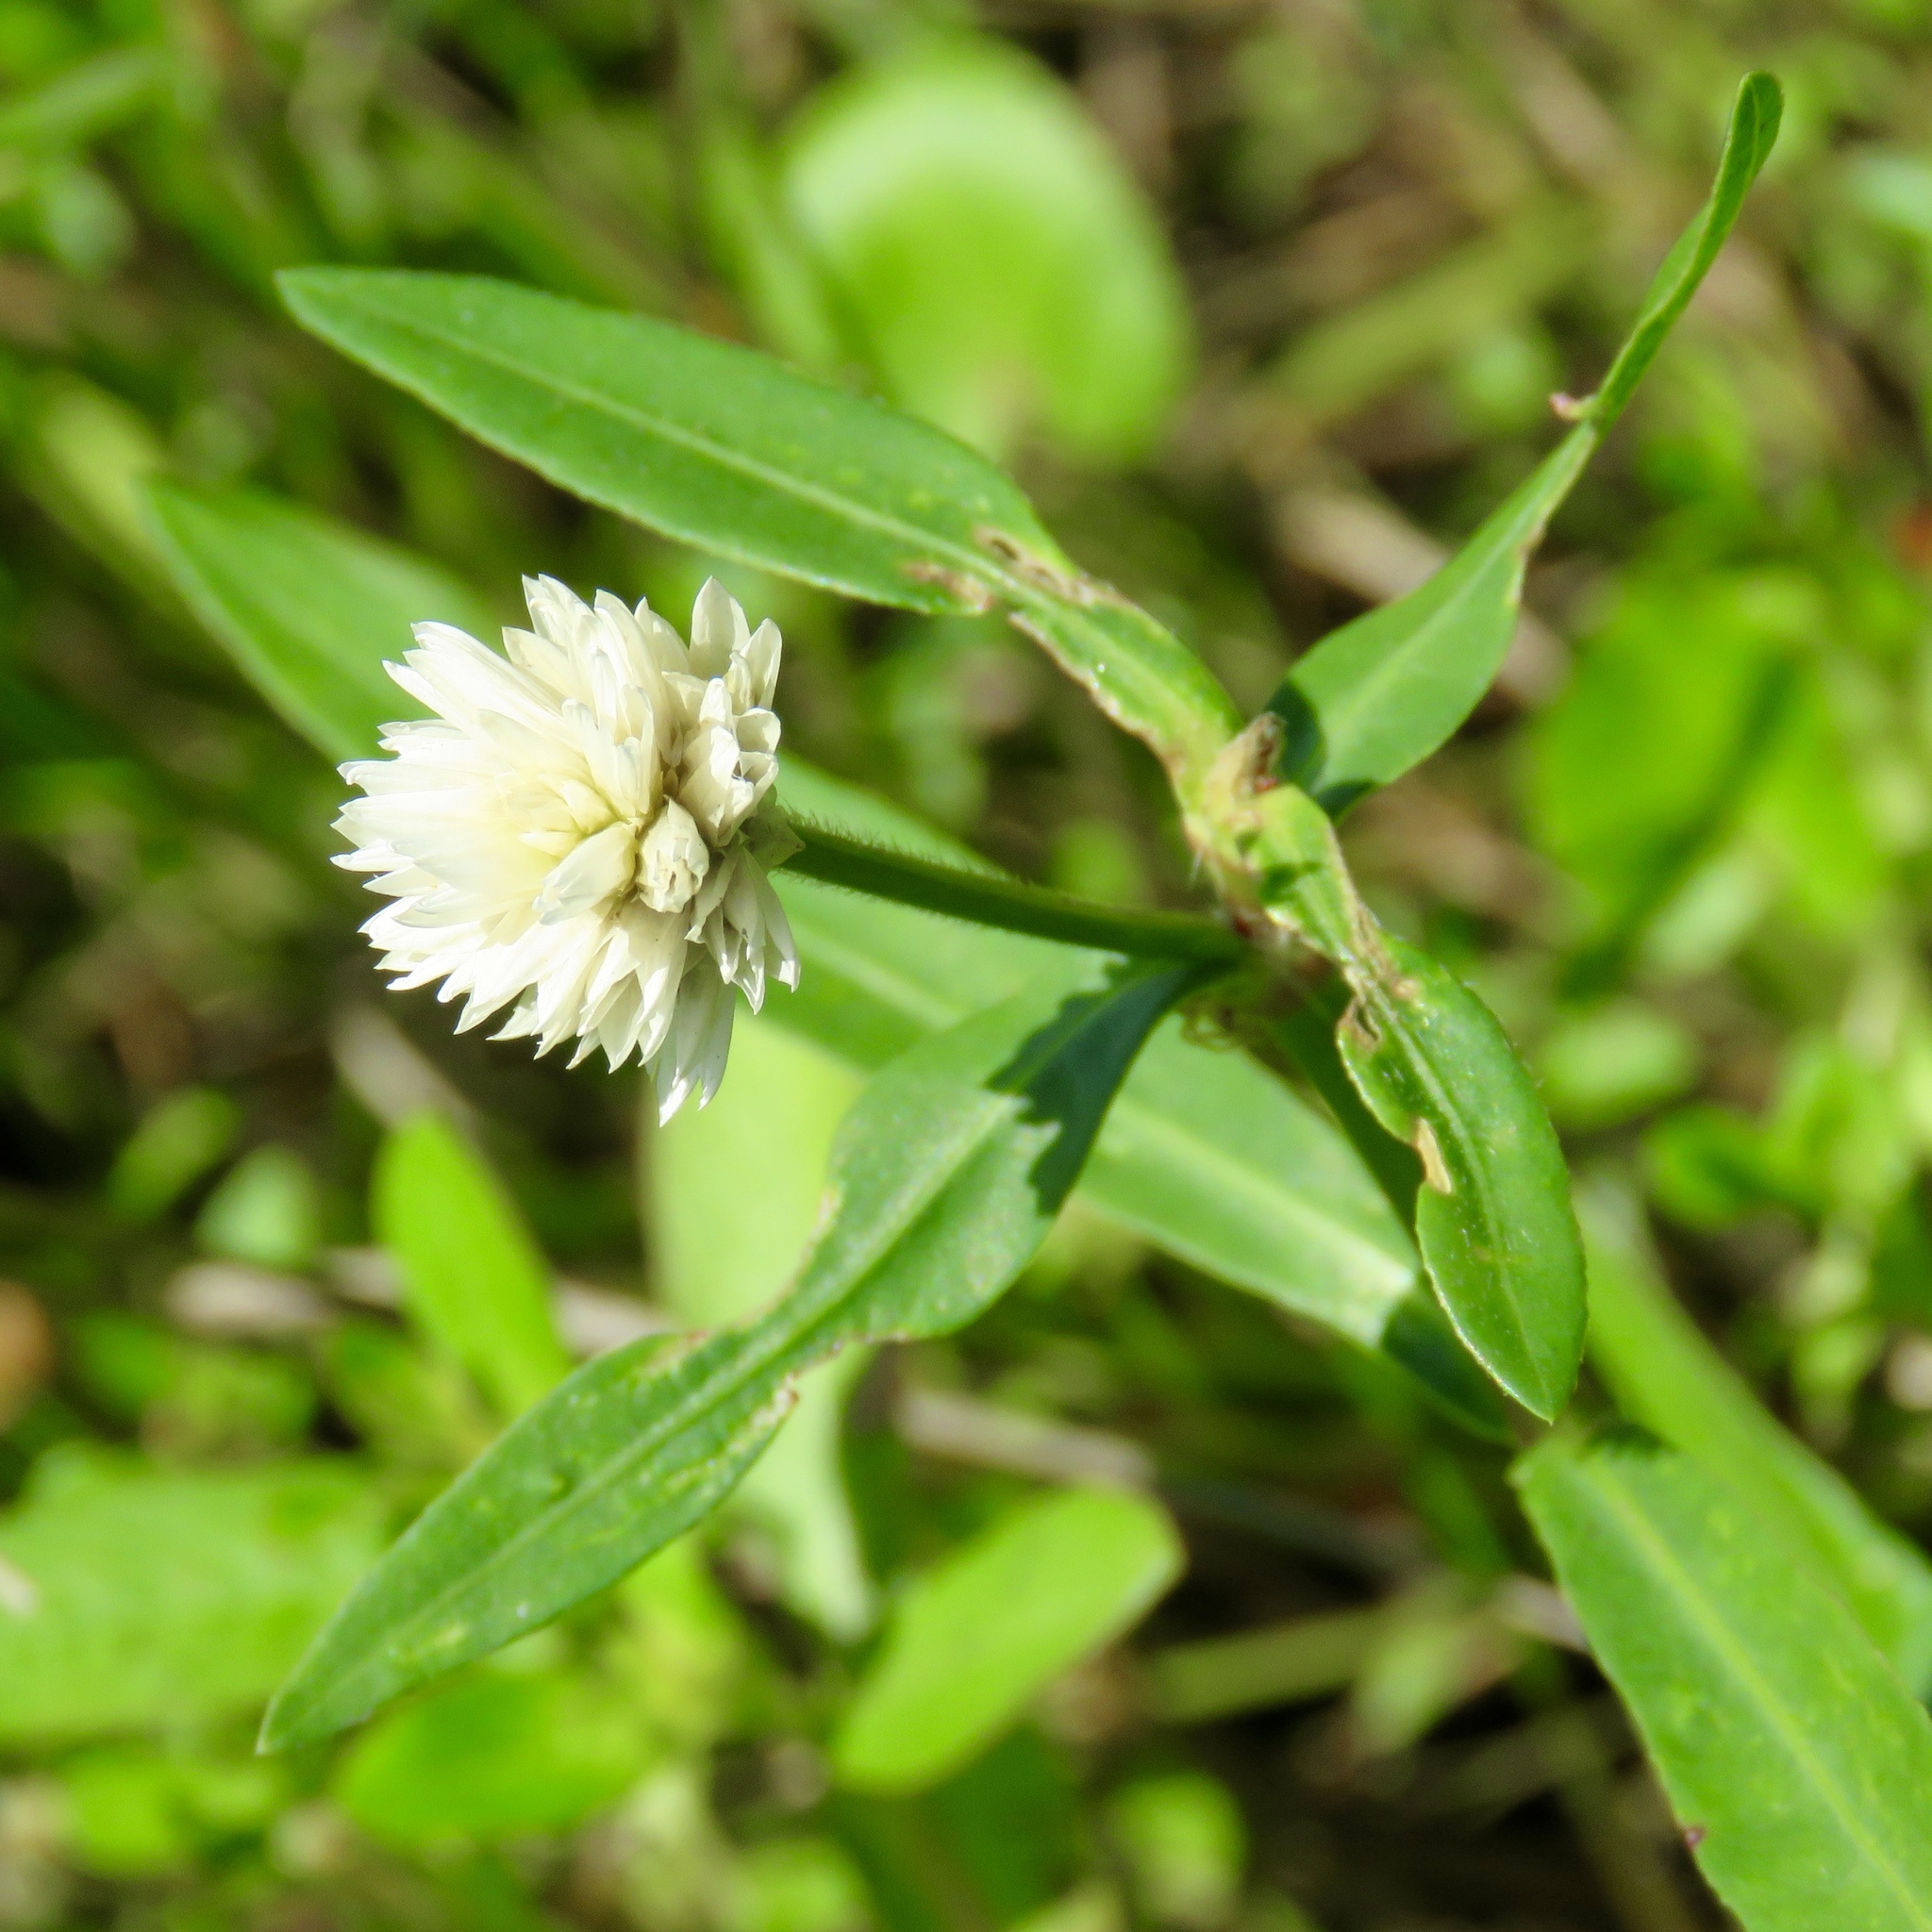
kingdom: Plantae
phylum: Tracheophyta
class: Magnoliopsida
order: Caryophyllales
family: Amaranthaceae
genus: Alternanthera
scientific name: Alternanthera philoxeroides
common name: Alligatorweed
